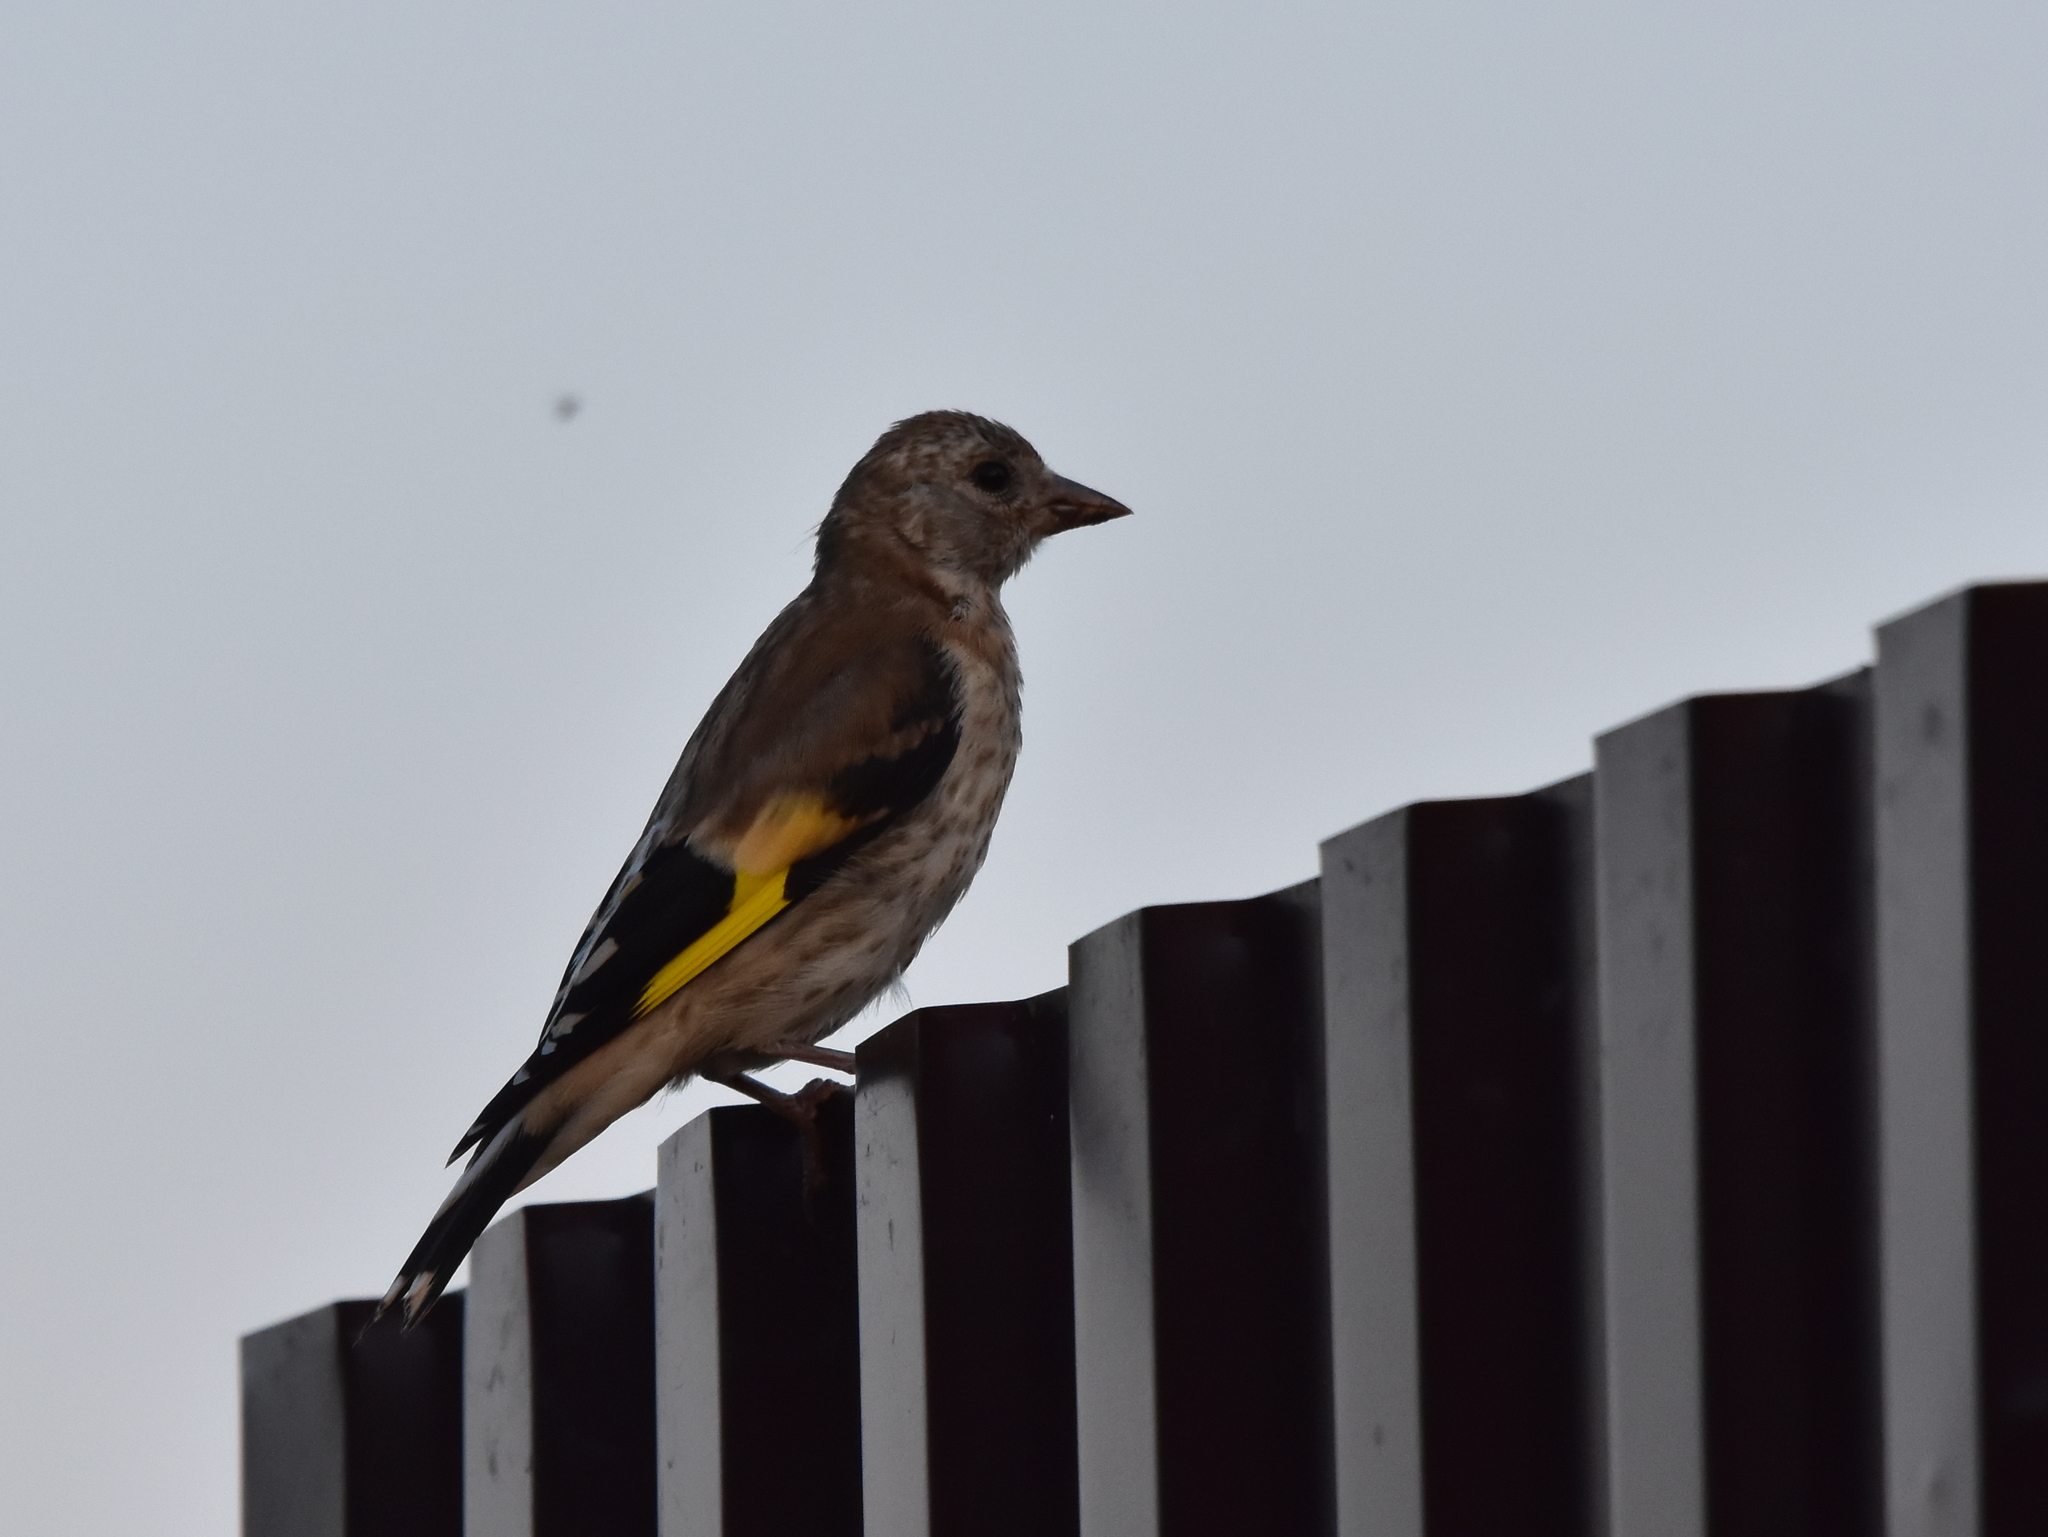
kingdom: Animalia
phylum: Chordata
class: Aves
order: Passeriformes
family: Fringillidae
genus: Carduelis
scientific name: Carduelis carduelis
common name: European goldfinch
